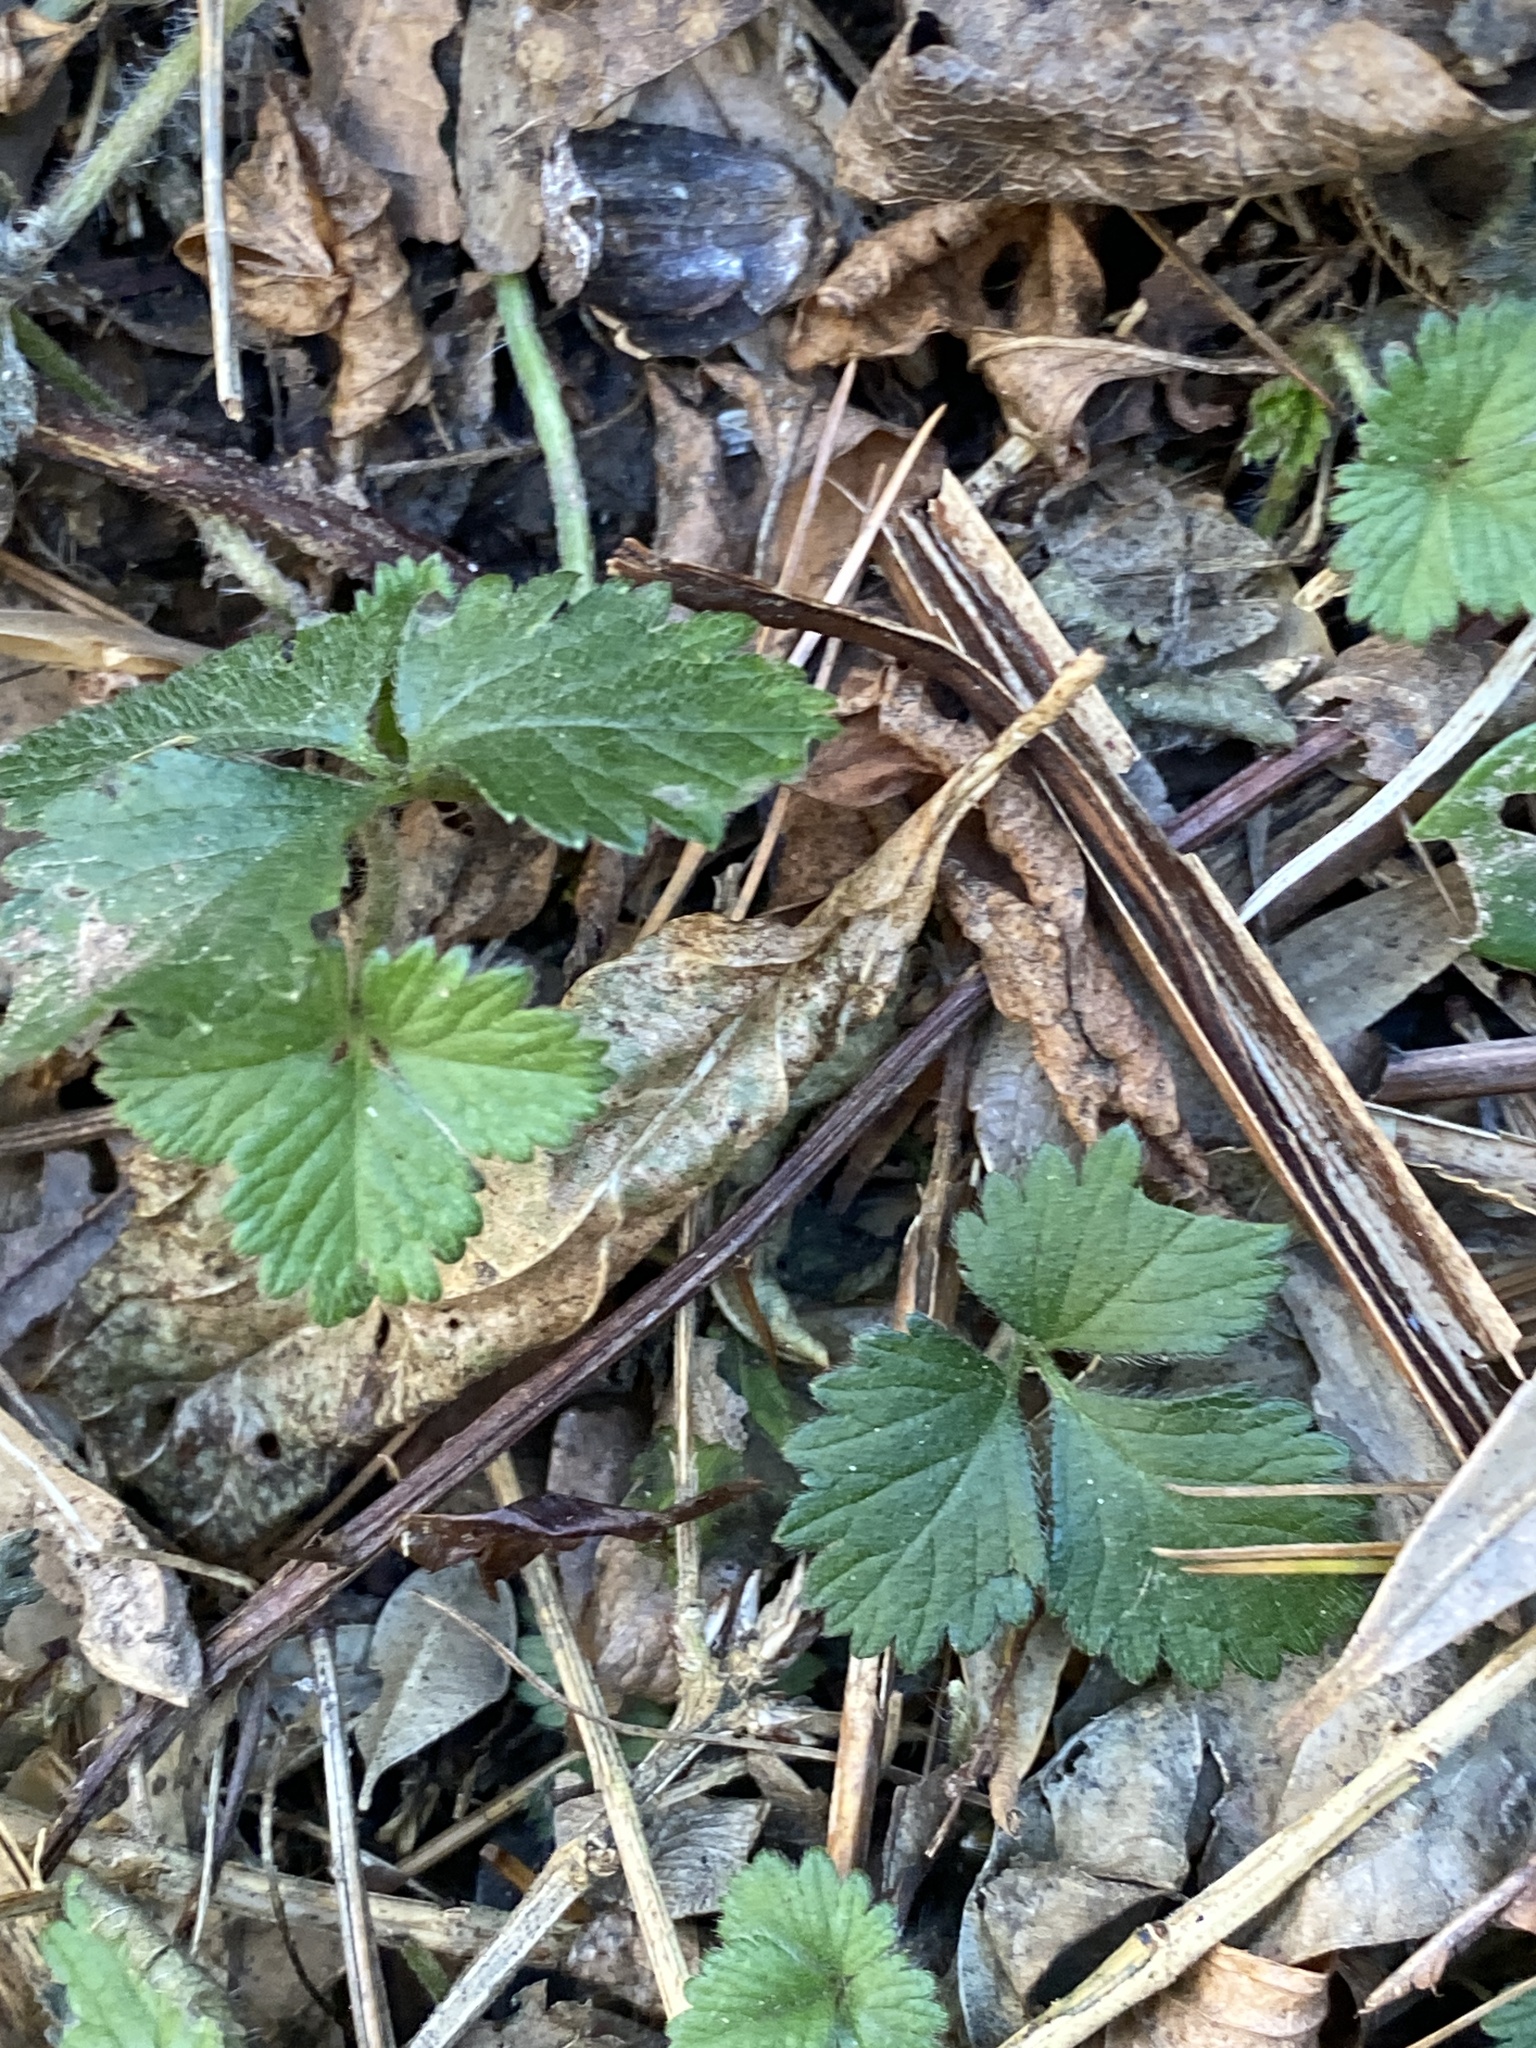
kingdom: Plantae
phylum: Tracheophyta
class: Magnoliopsida
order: Rosales
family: Rosaceae
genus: Potentilla
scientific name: Potentilla indica
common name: Yellow-flowered strawberry
